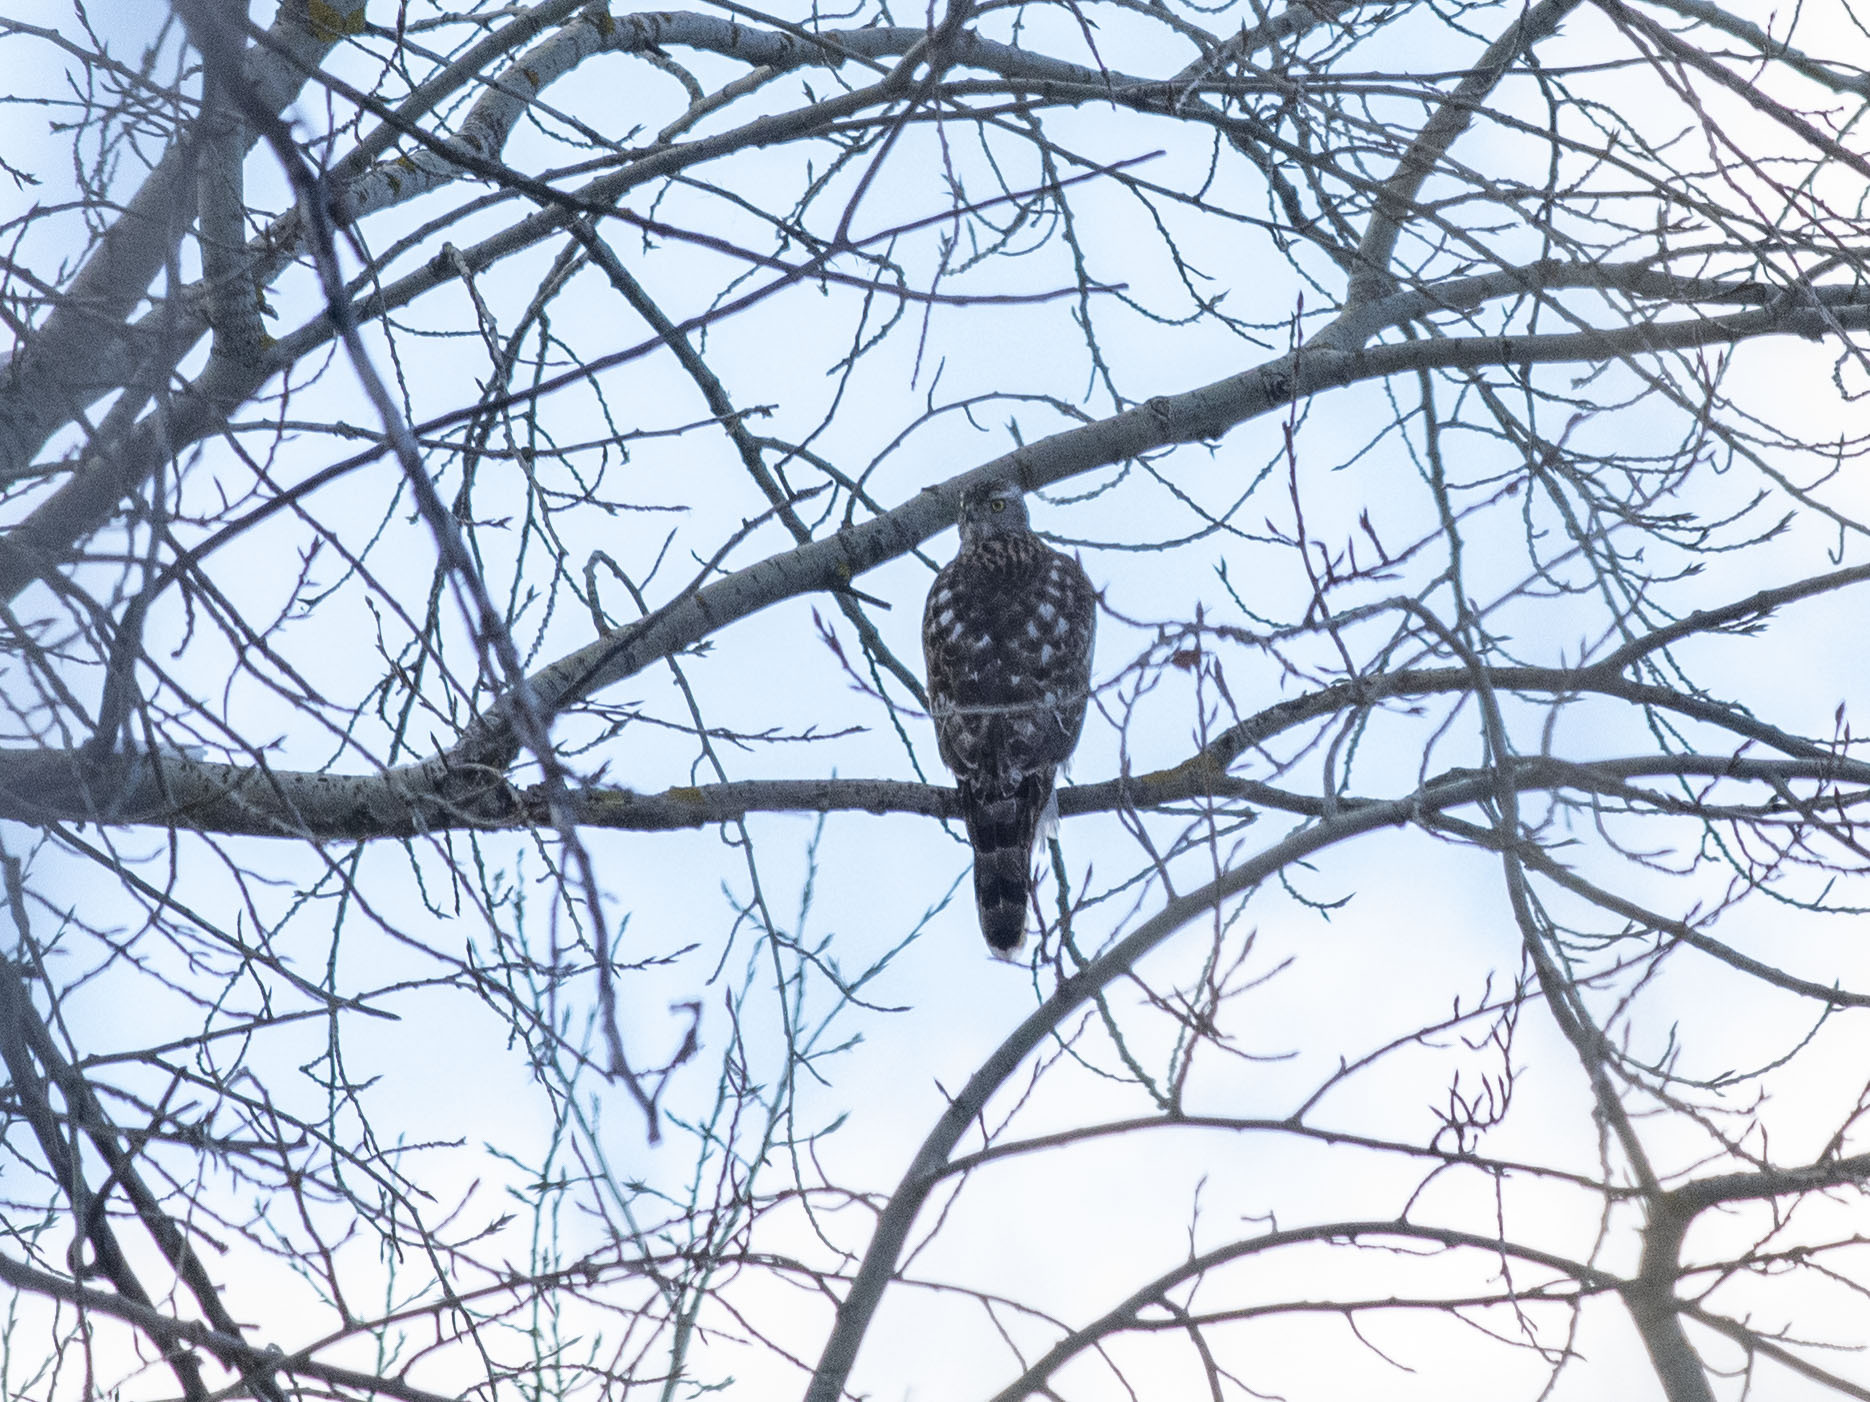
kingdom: Animalia
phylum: Chordata
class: Aves
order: Accipitriformes
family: Accipitridae
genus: Accipiter
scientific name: Accipiter gentilis
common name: Northern goshawk
